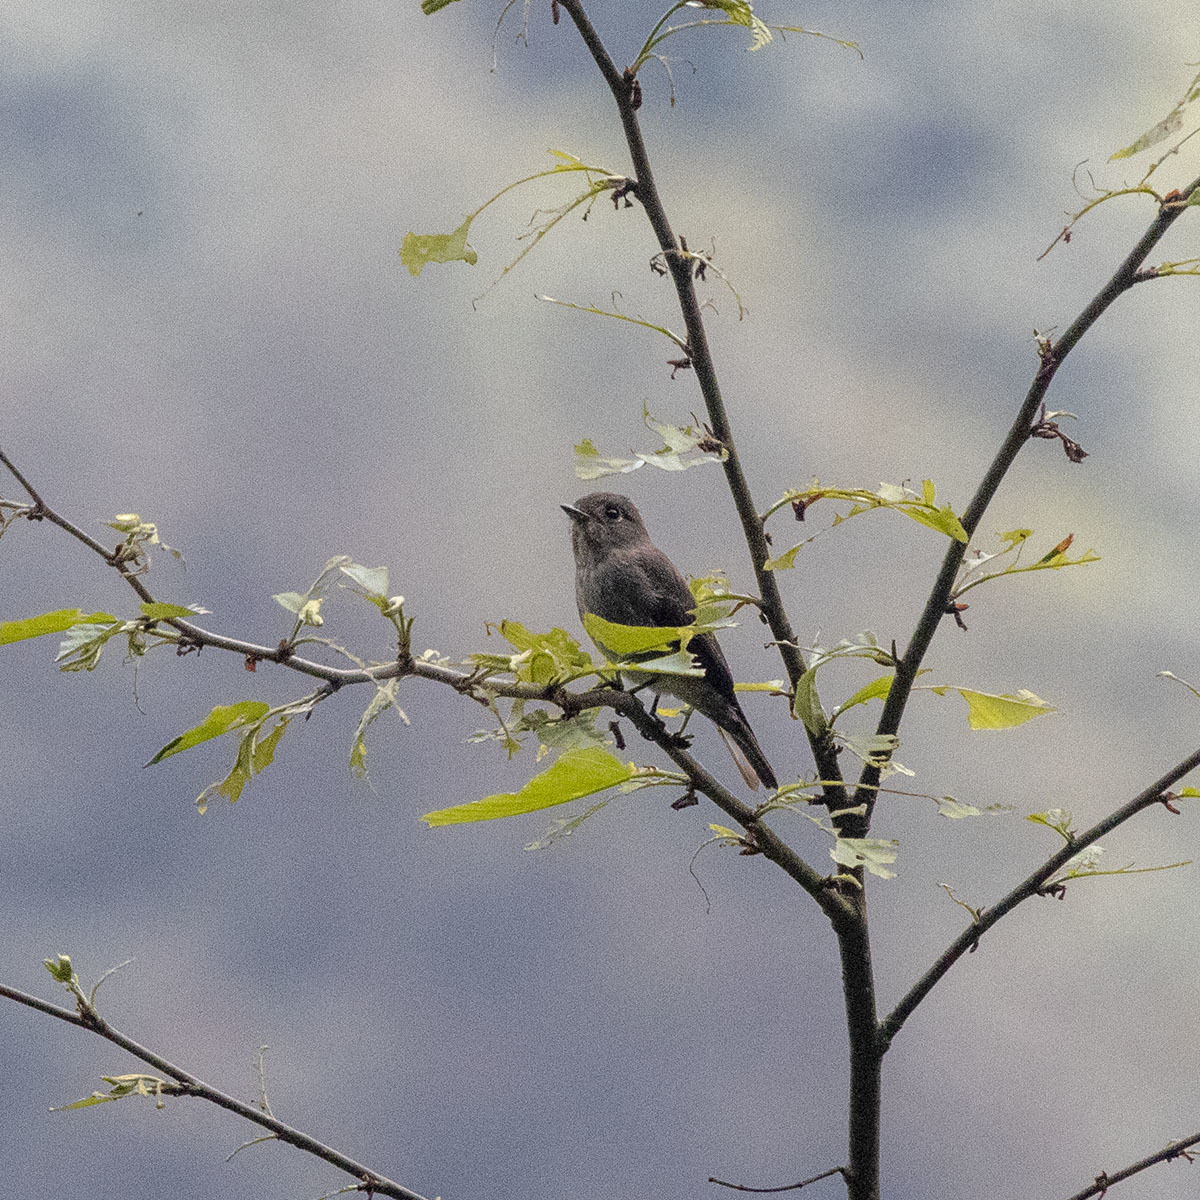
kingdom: Animalia
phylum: Chordata
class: Aves
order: Passeriformes
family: Muscicapidae
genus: Muscicapa
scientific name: Muscicapa sibirica
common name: Dark-sided flycatcher
